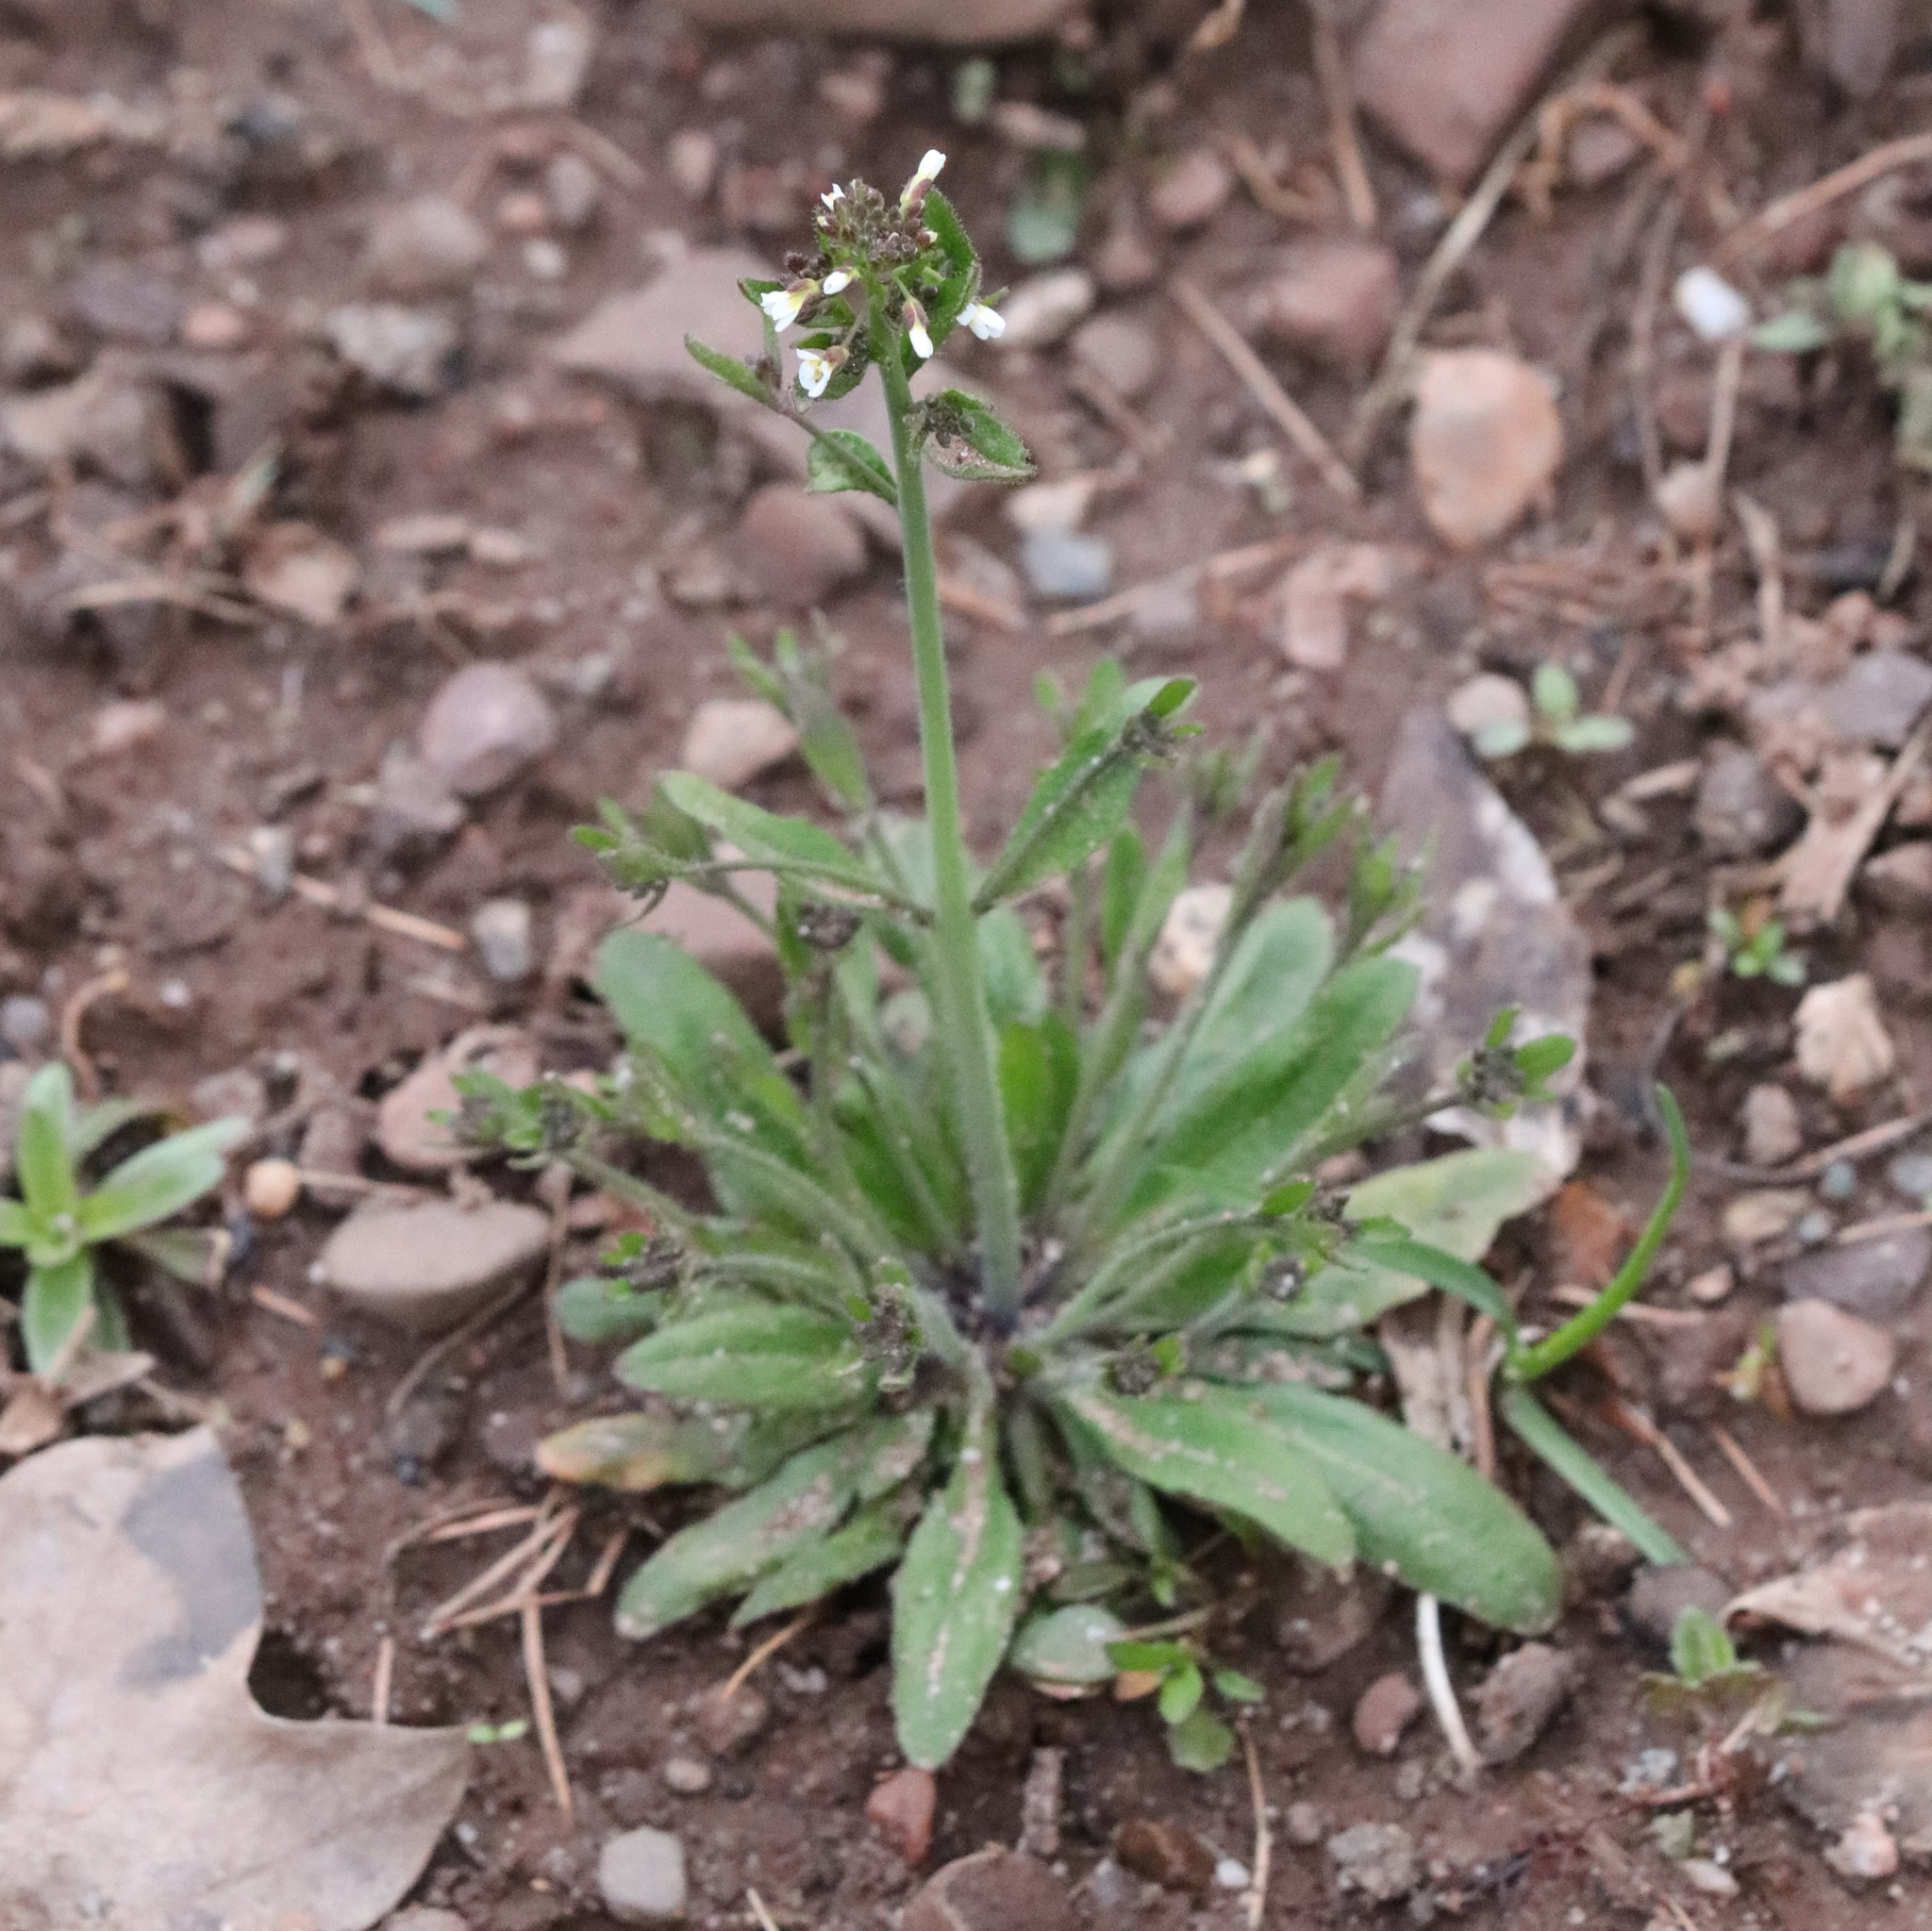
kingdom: Plantae
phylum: Tracheophyta
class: Magnoliopsida
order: Brassicales
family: Brassicaceae
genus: Arabidopsis
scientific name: Arabidopsis thaliana
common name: Thale cress
